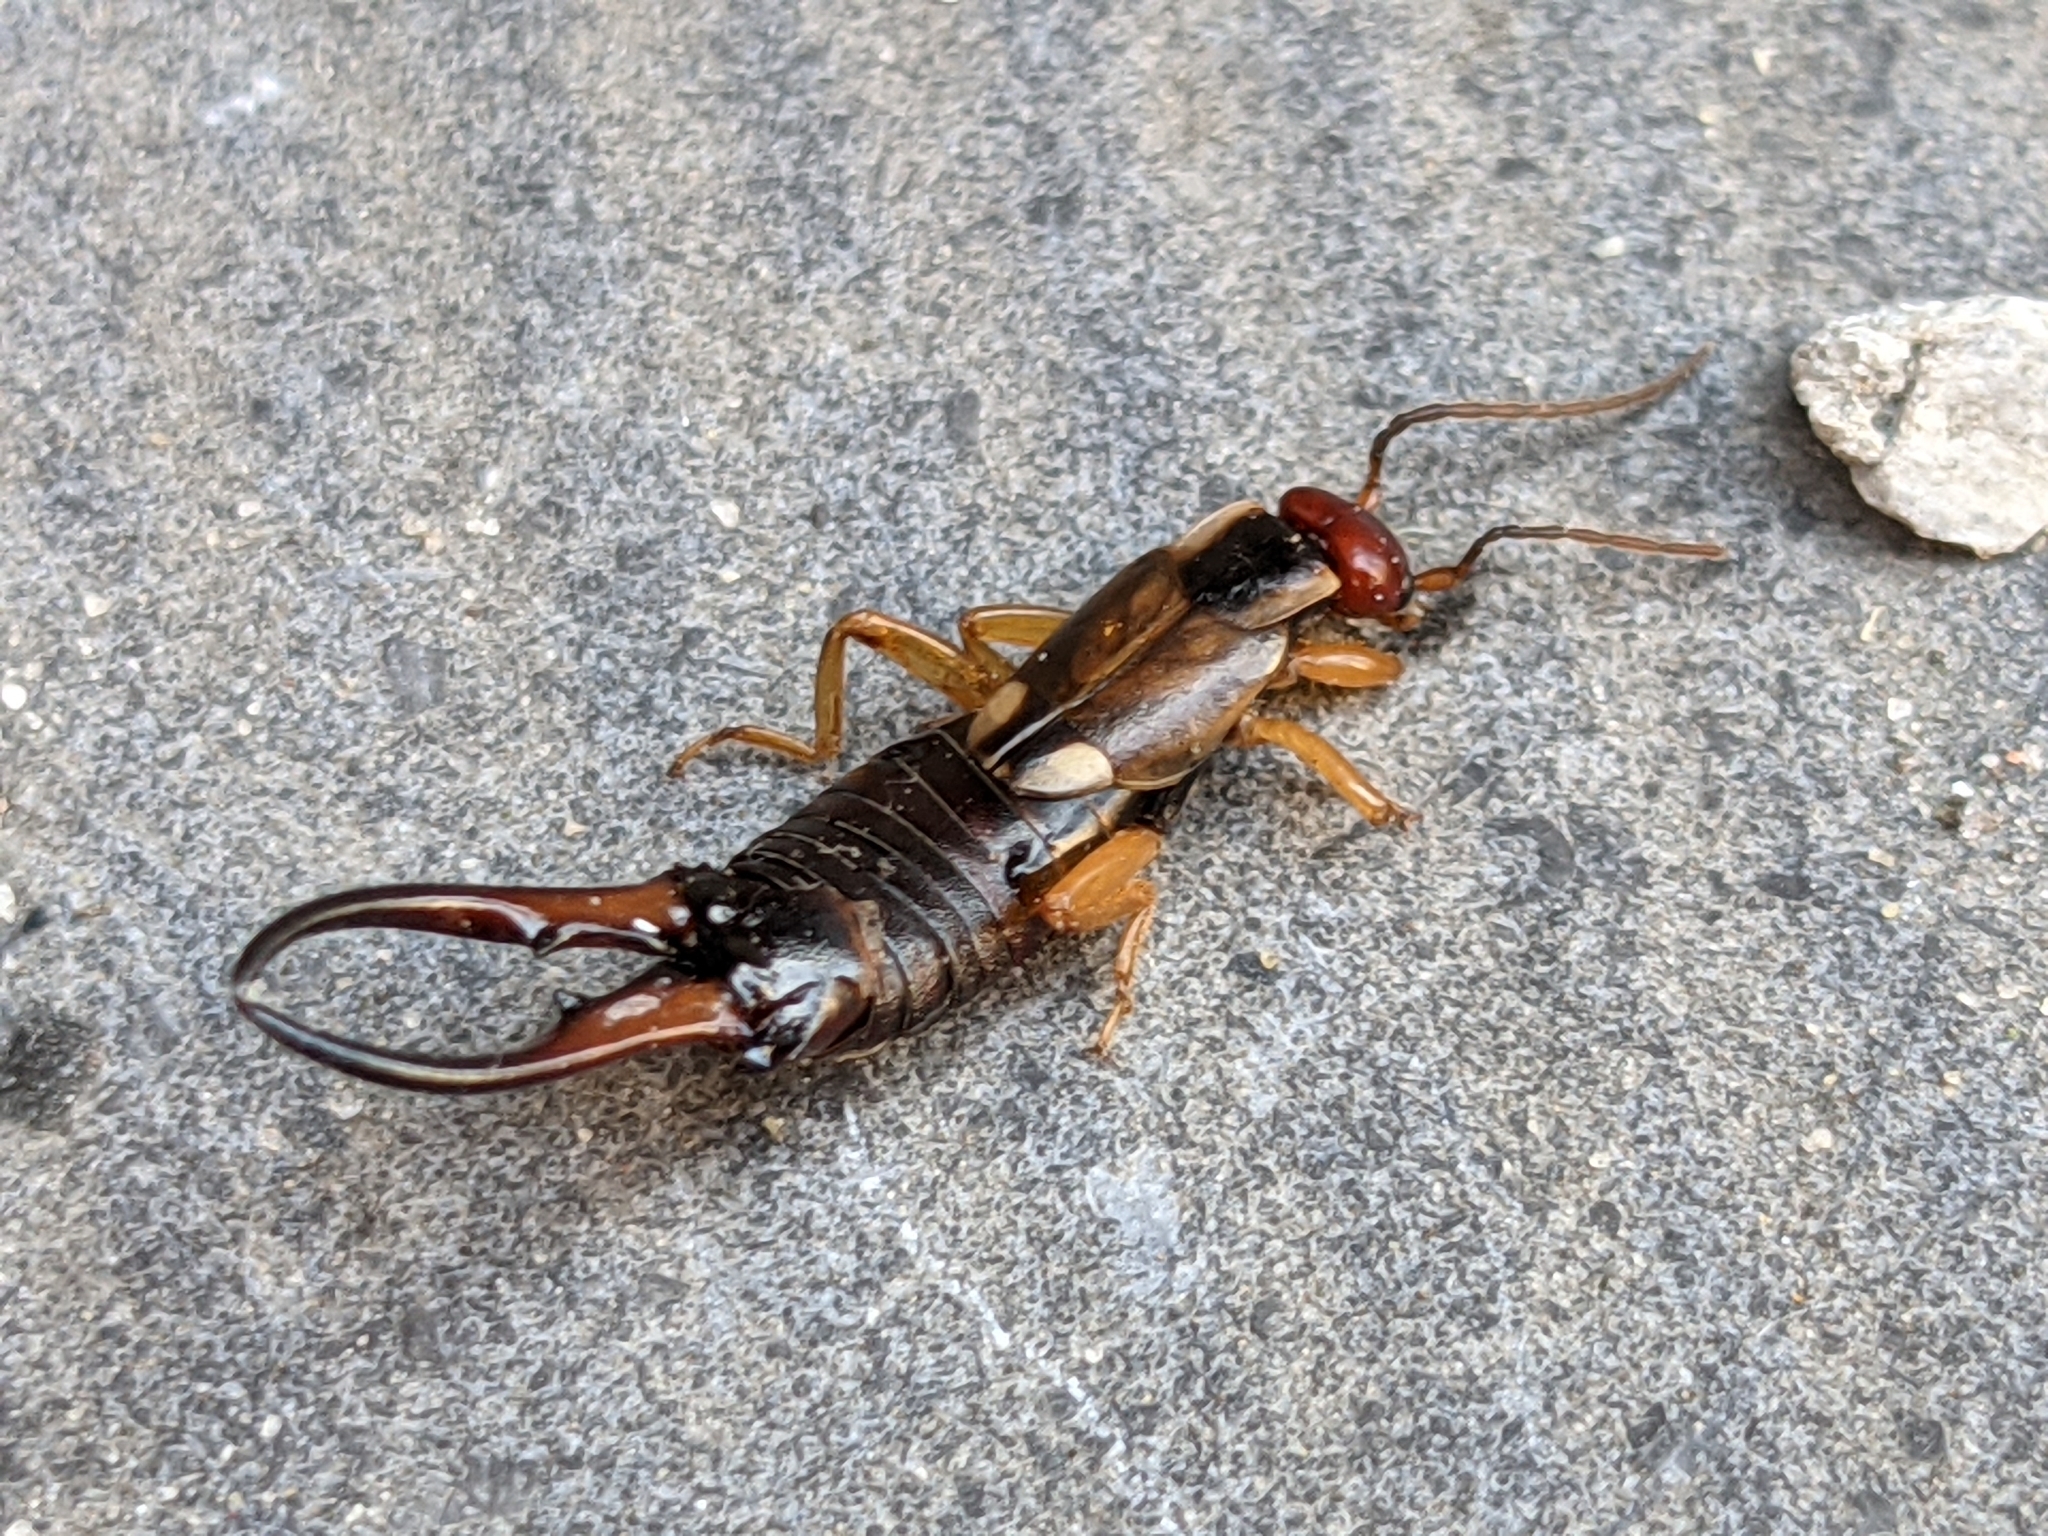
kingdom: Animalia
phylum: Arthropoda
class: Insecta
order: Dermaptera
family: Forficulidae
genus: Forficula
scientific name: Forficula
